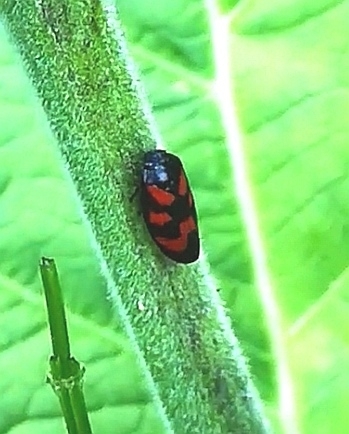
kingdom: Animalia
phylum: Arthropoda
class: Insecta
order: Hemiptera
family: Cercopidae
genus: Cercopis
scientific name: Cercopis vulnerata
